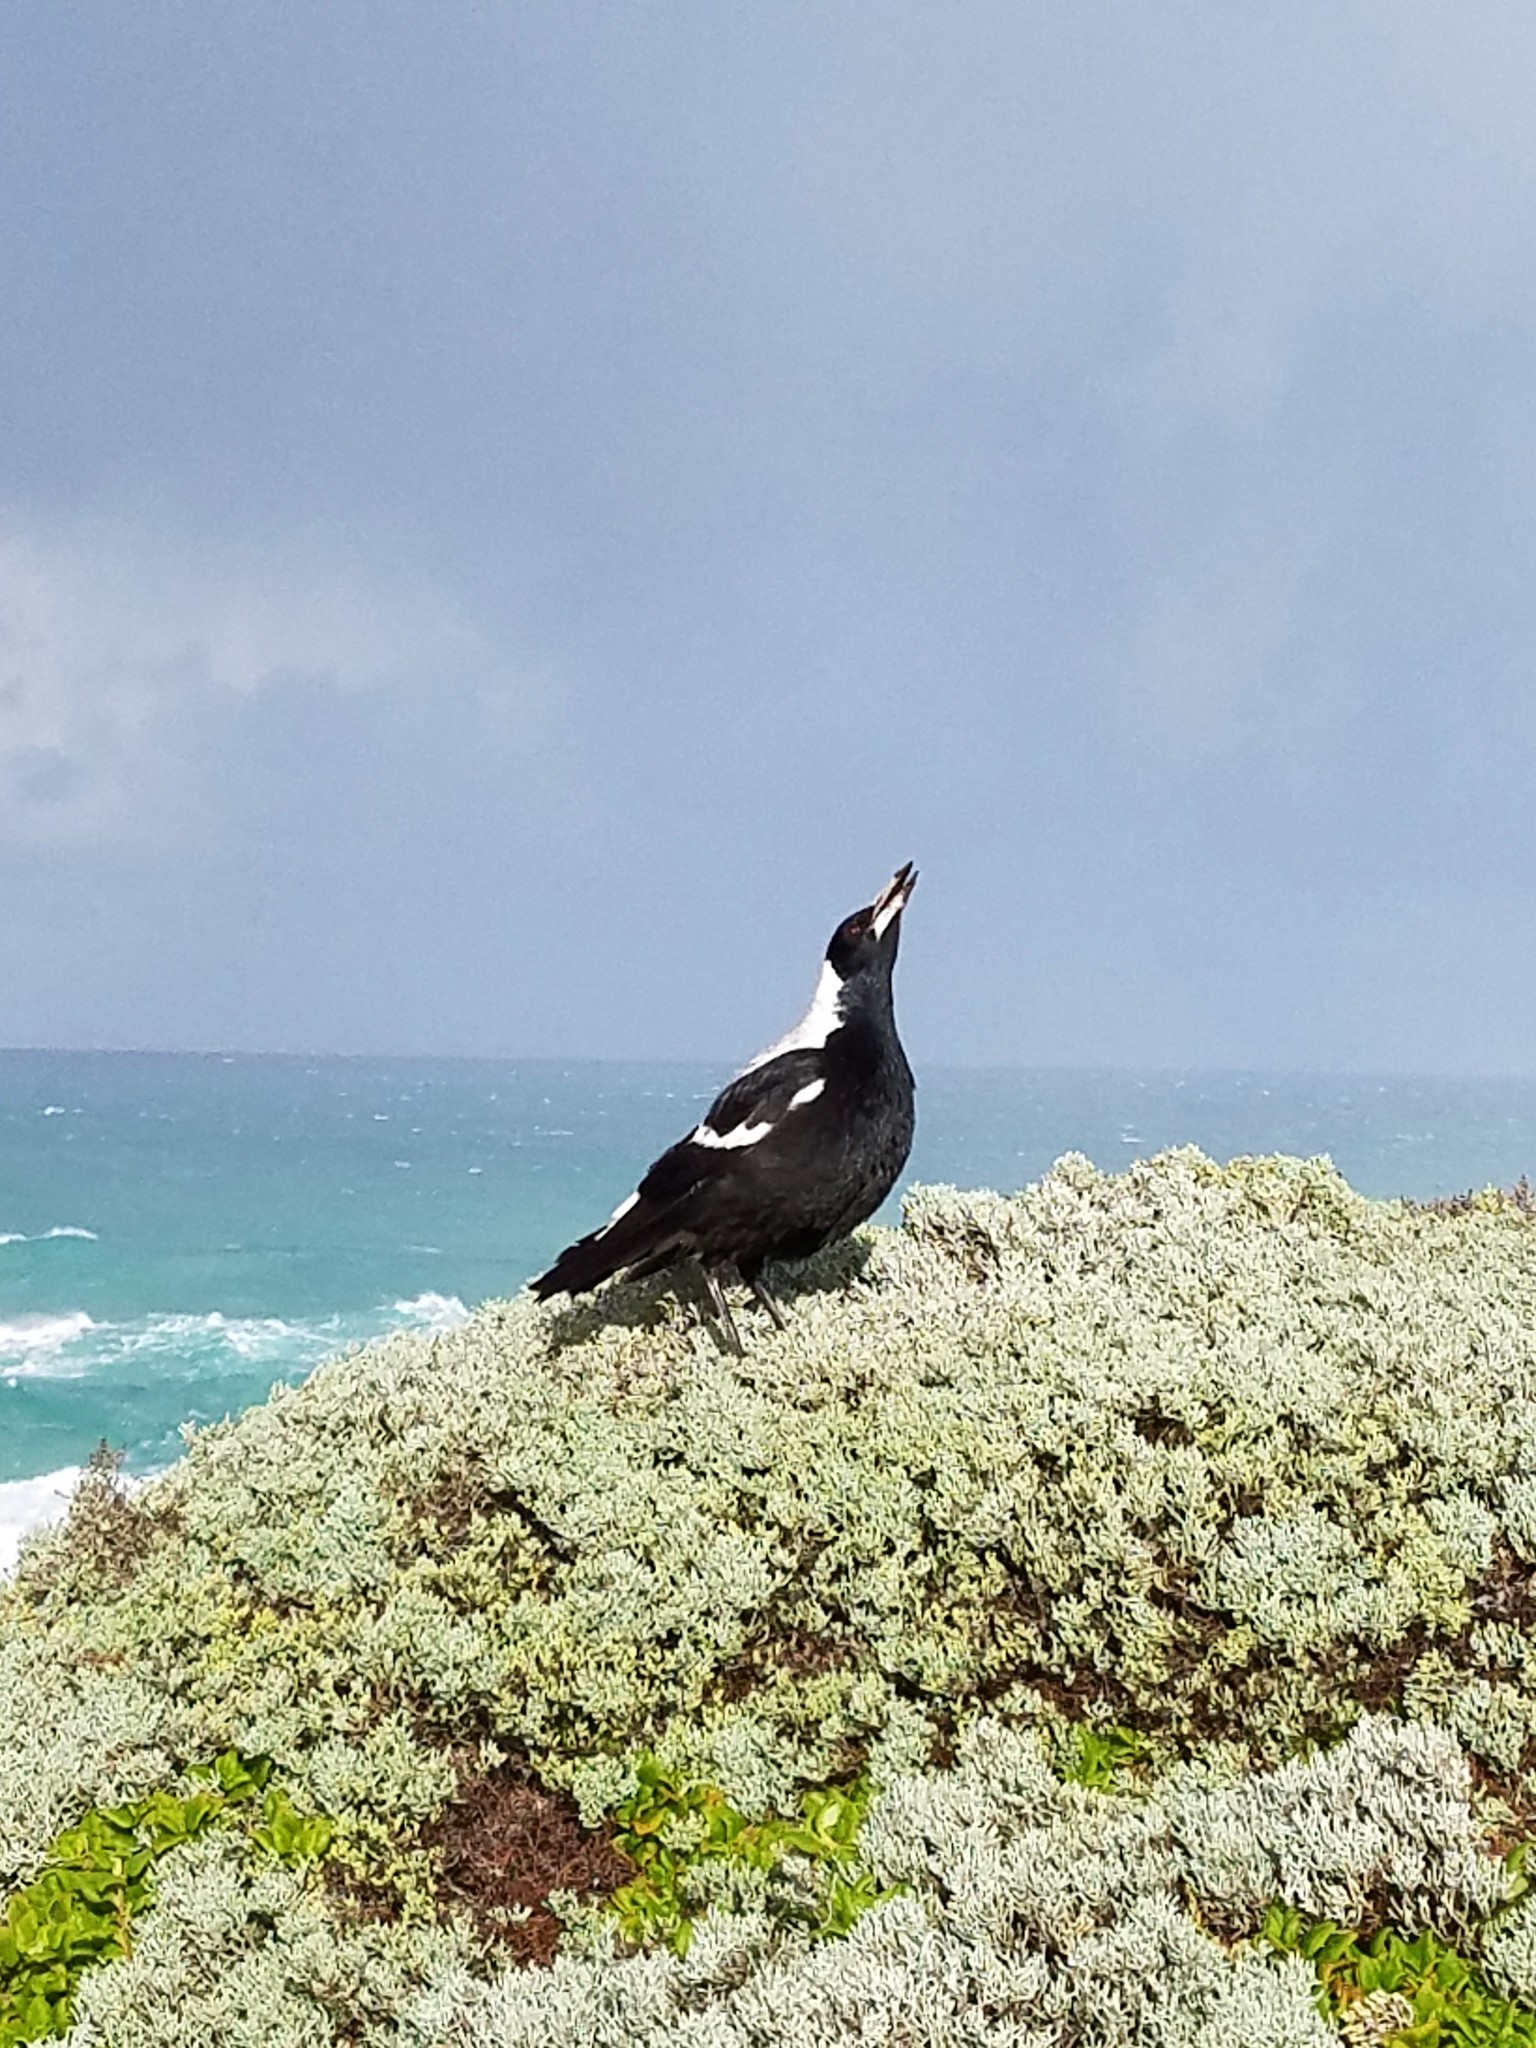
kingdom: Animalia
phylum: Chordata
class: Aves
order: Passeriformes
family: Cracticidae
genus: Gymnorhina
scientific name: Gymnorhina tibicen
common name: Australian magpie
